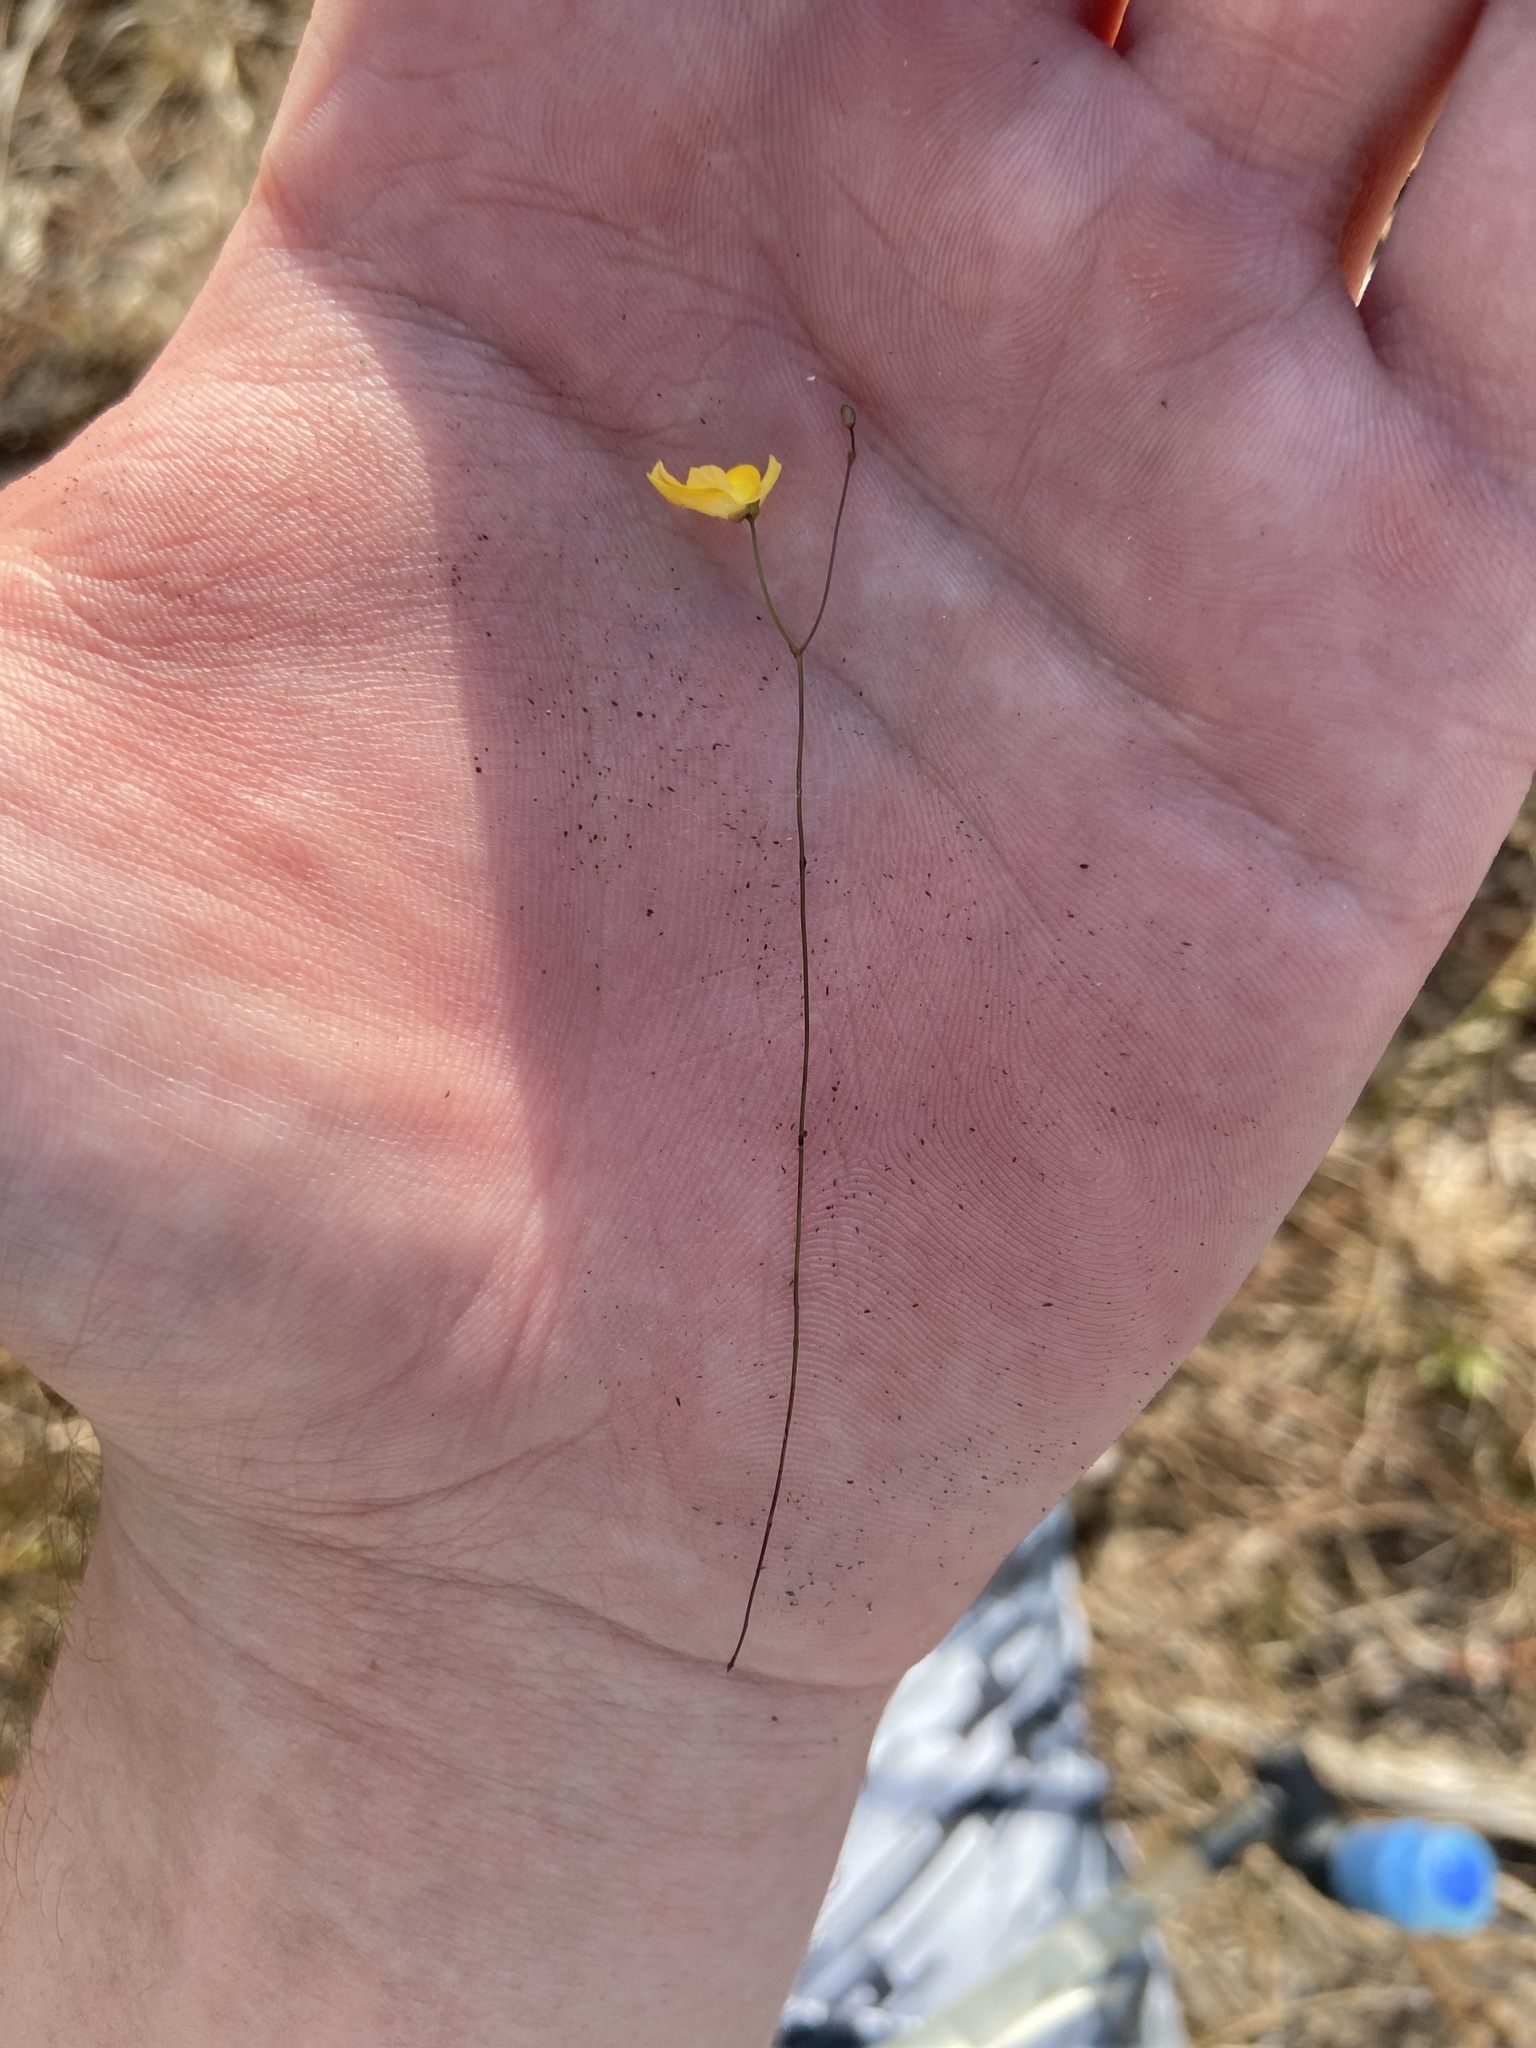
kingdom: Plantae
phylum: Tracheophyta
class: Magnoliopsida
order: Lamiales
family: Lentibulariaceae
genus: Utricularia
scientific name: Utricularia subulata
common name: Tiny bladderwort
